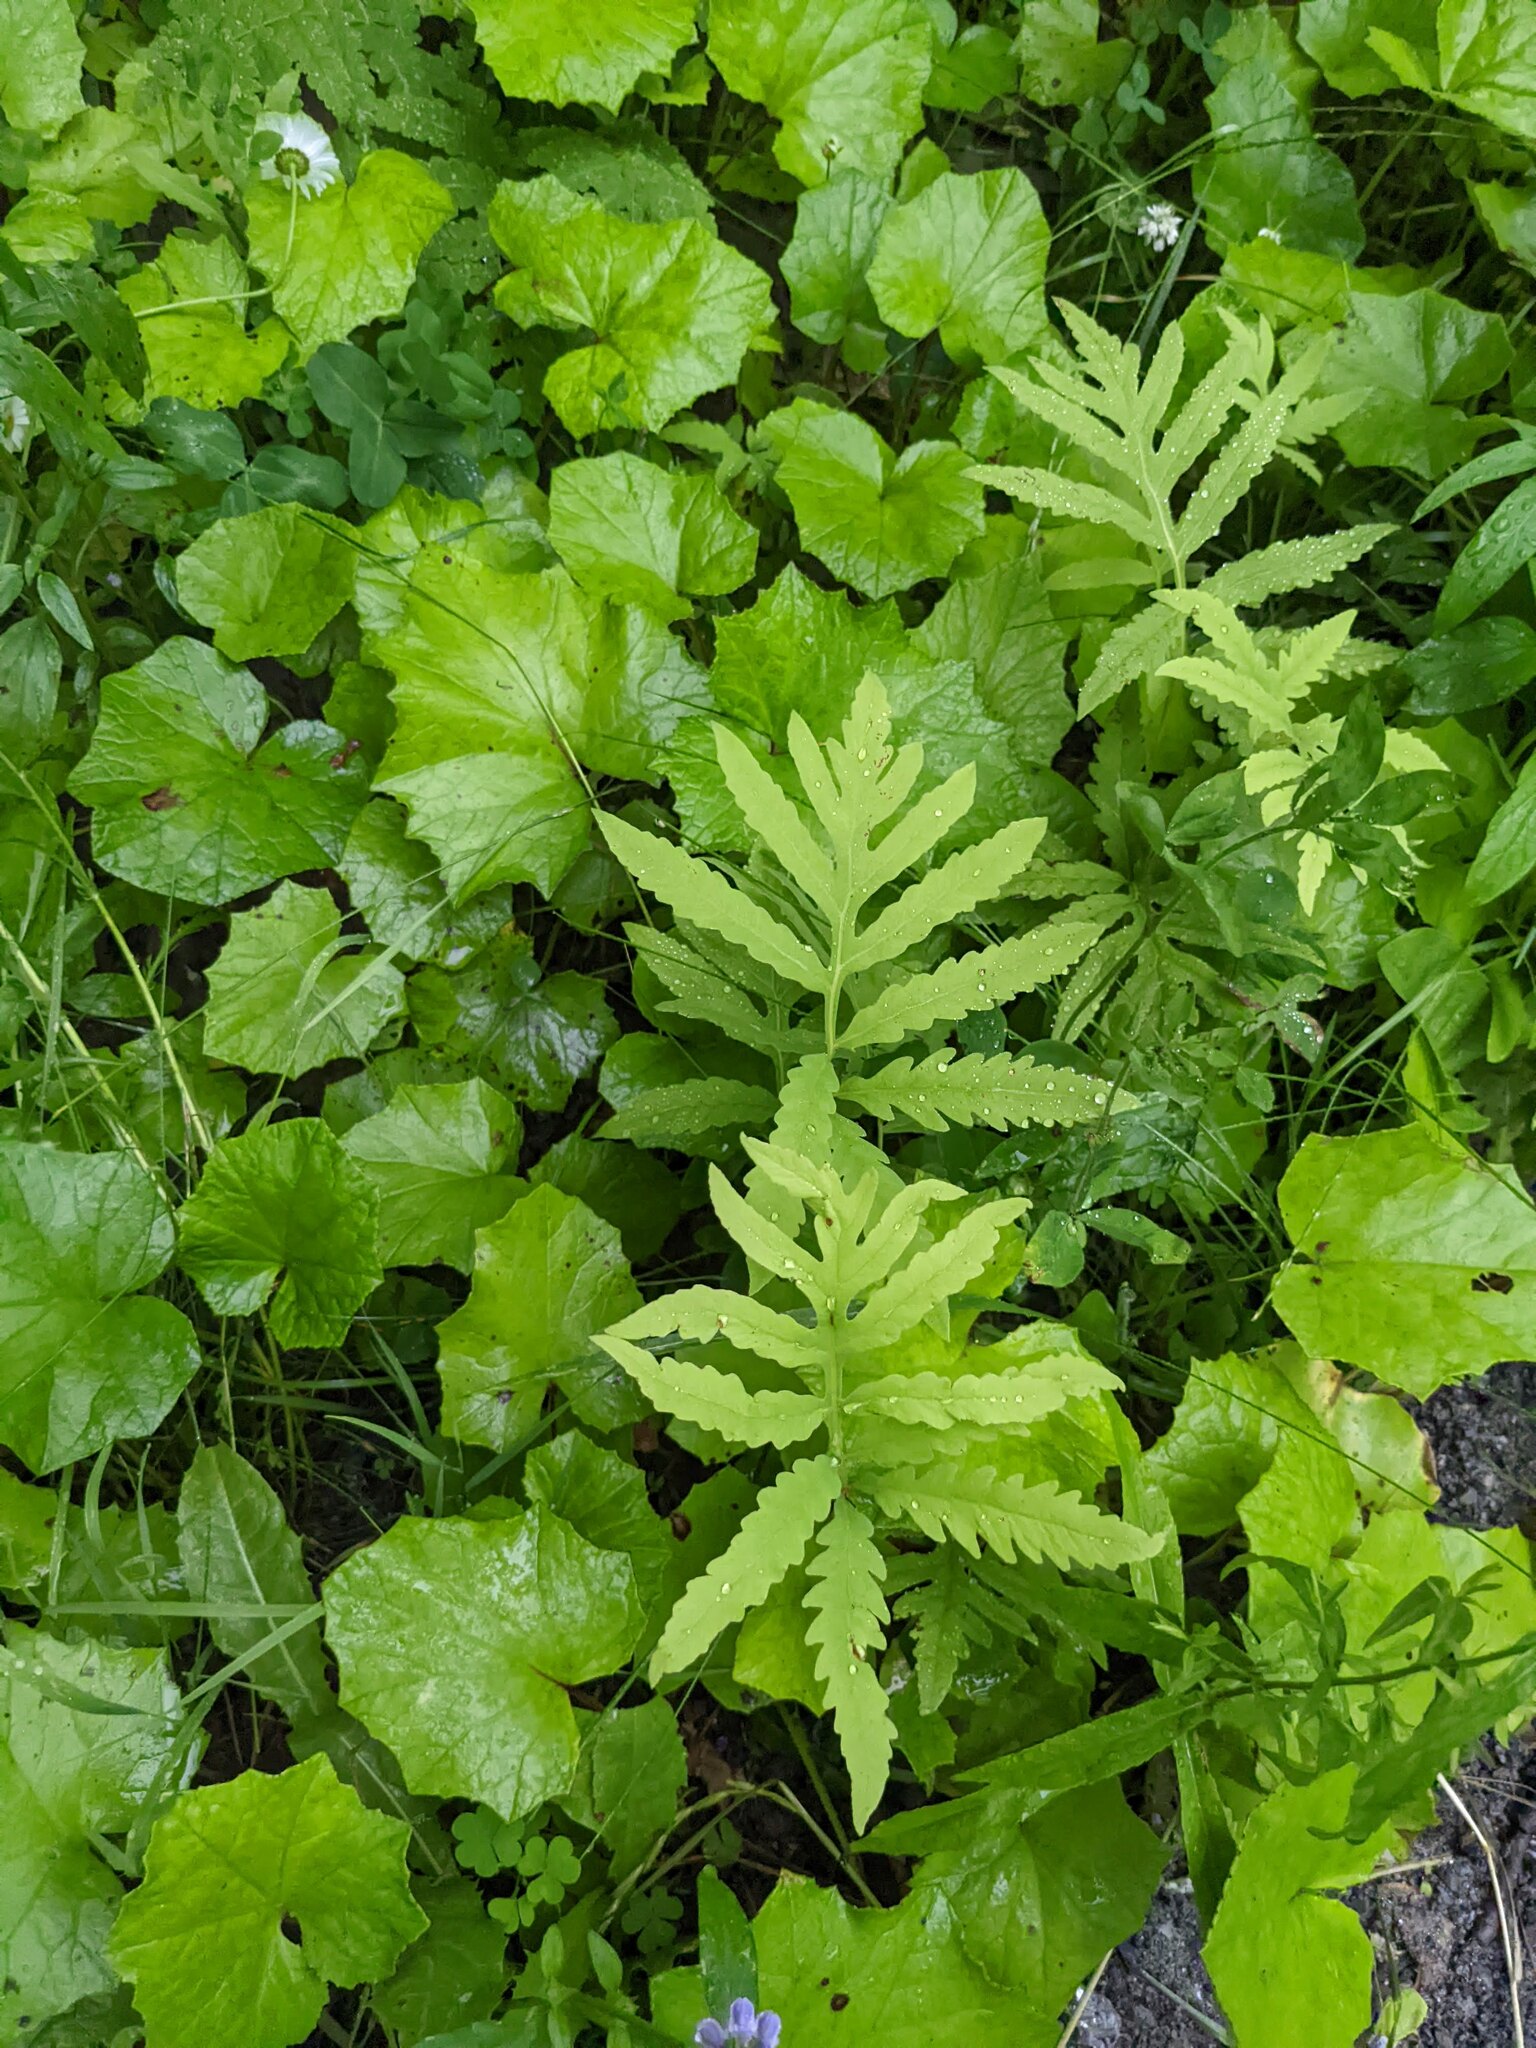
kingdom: Plantae
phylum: Tracheophyta
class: Magnoliopsida
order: Asterales
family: Asteraceae
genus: Tussilago
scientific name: Tussilago farfara
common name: Coltsfoot
